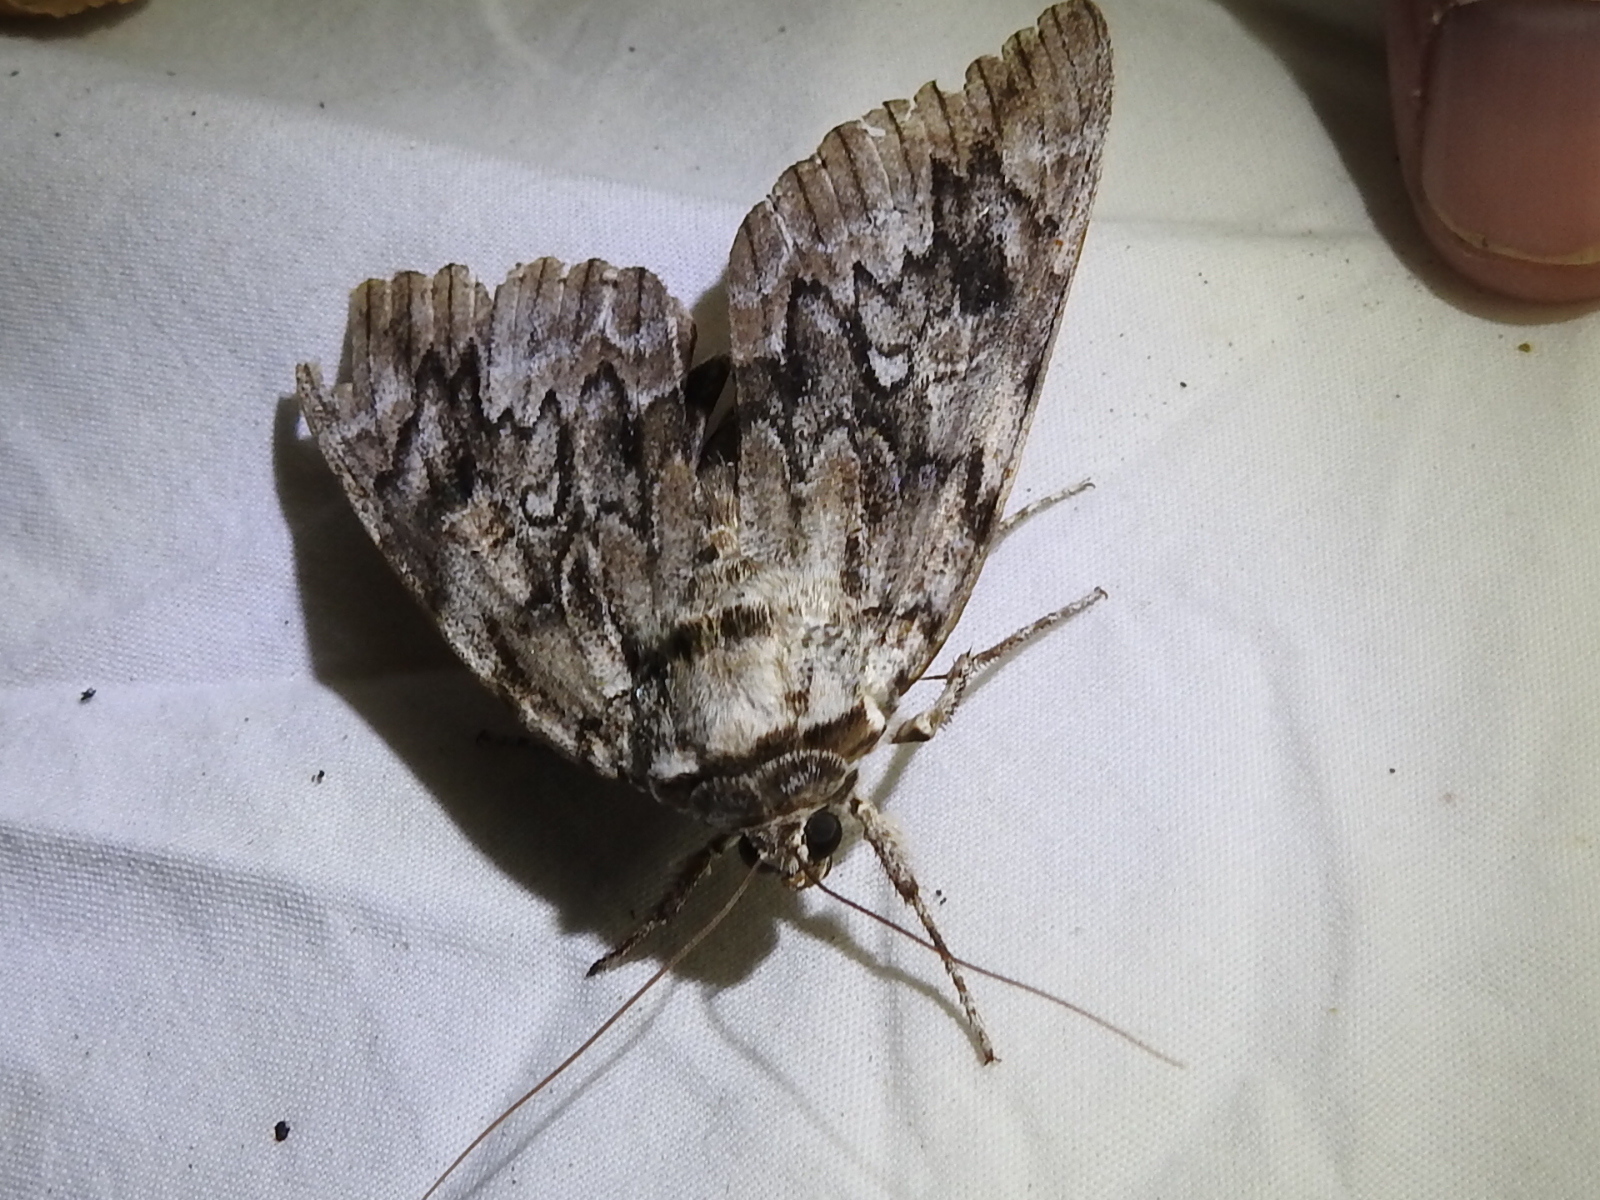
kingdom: Animalia
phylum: Arthropoda
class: Insecta
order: Lepidoptera
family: Erebidae
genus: Catocala
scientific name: Catocala maestosa
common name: Sad underwing
